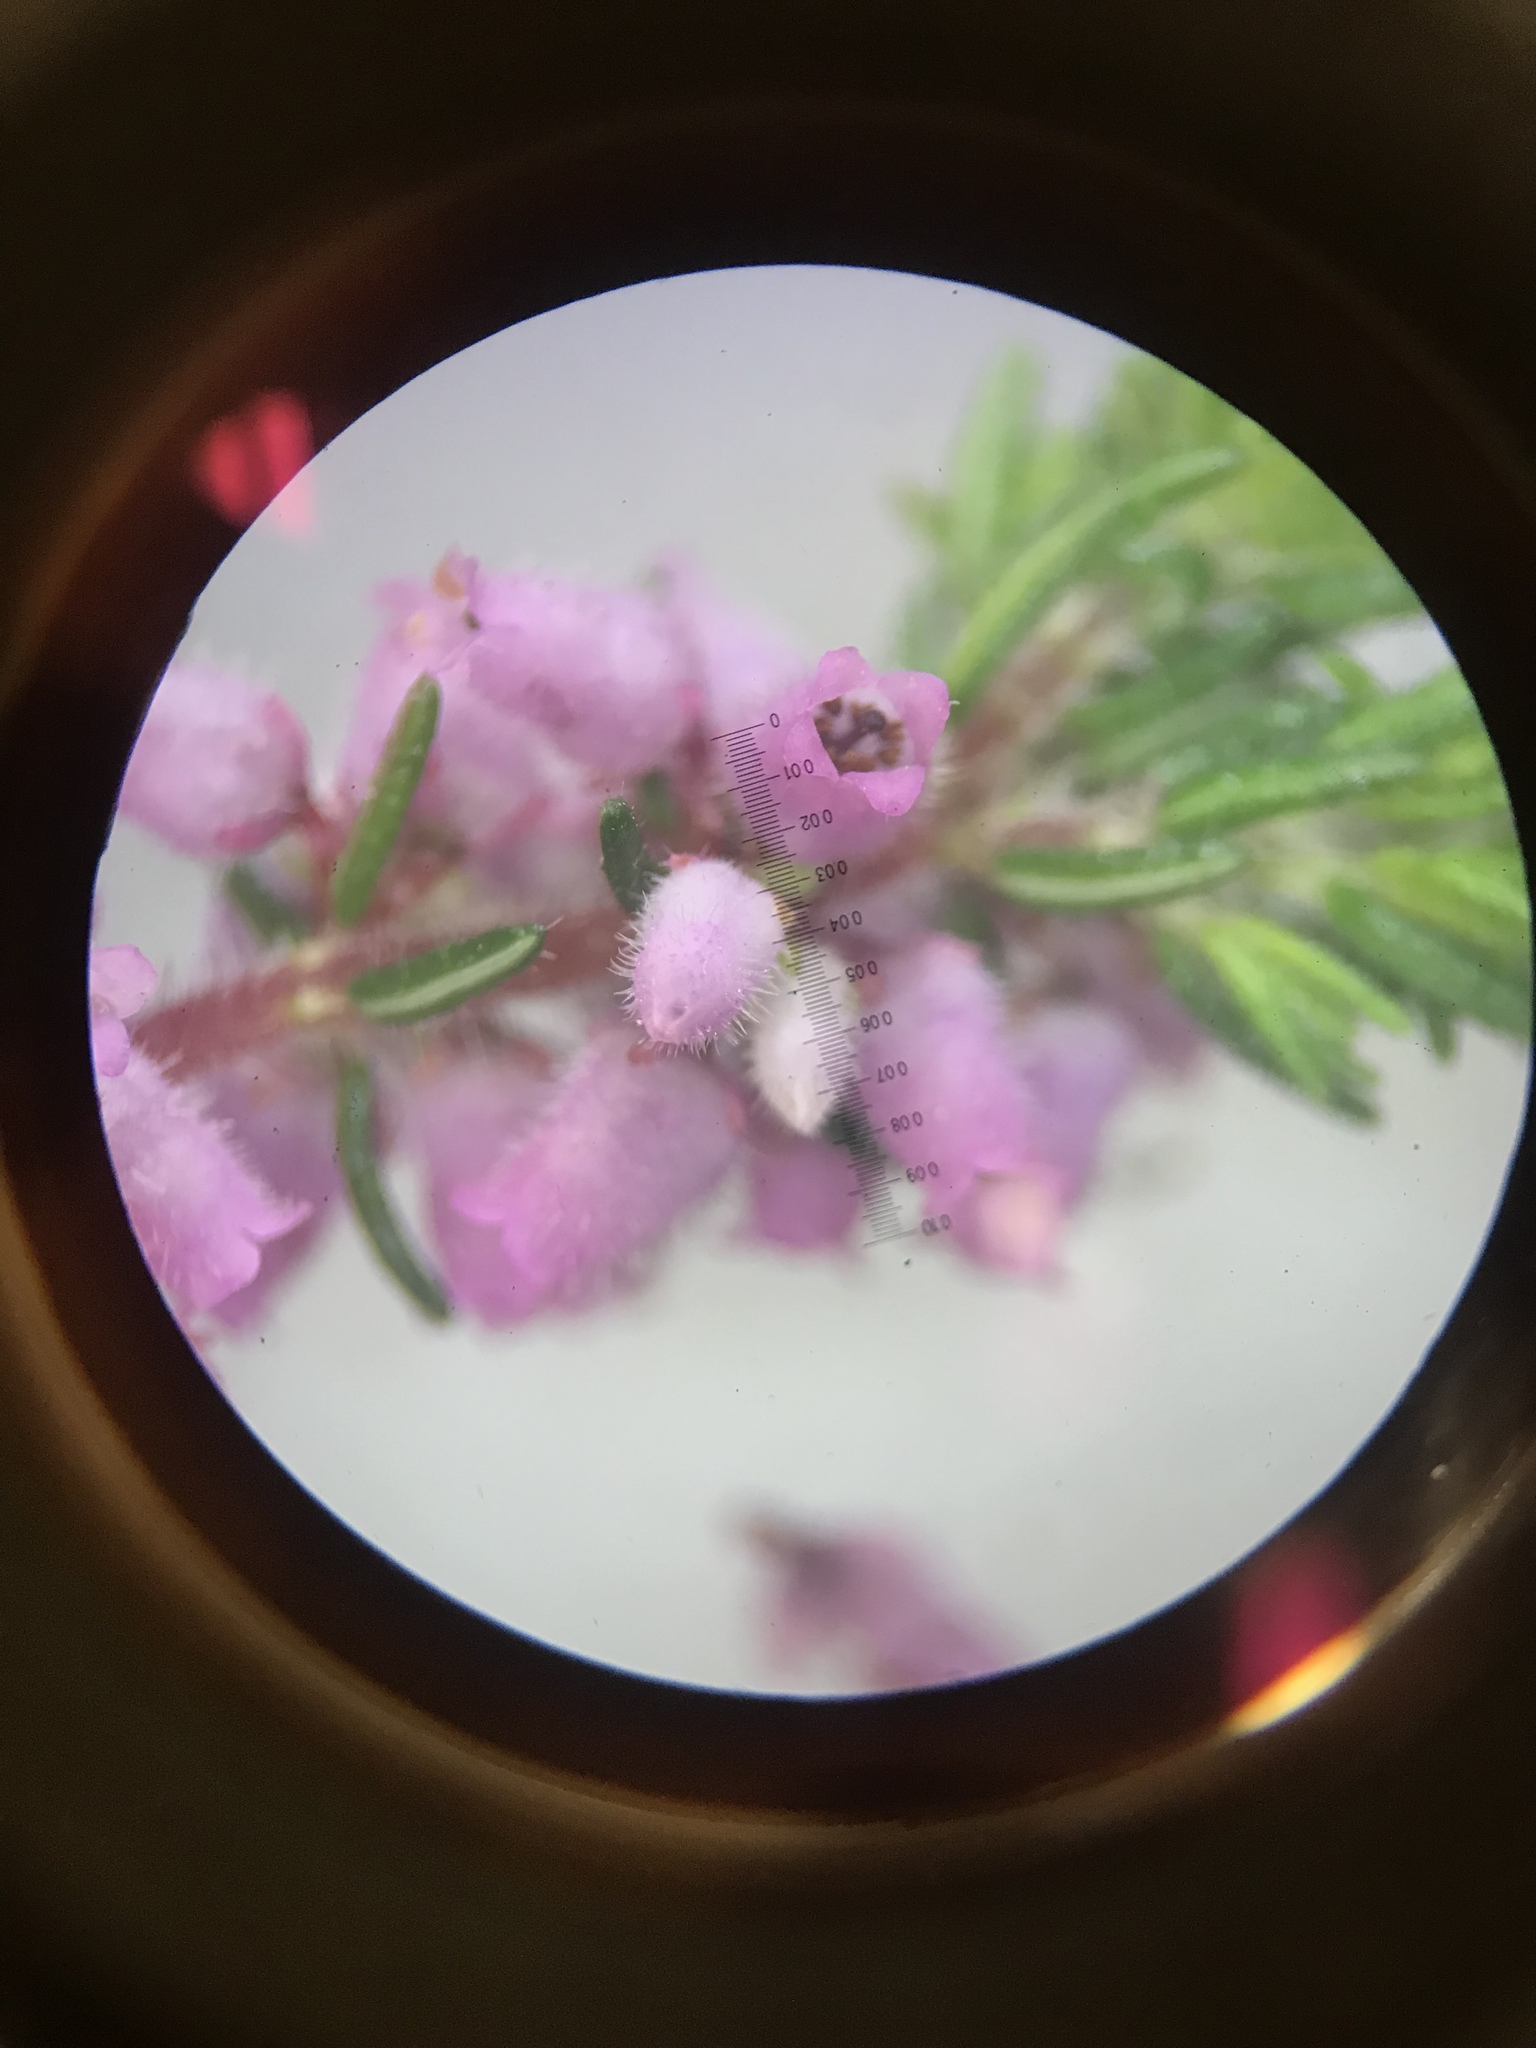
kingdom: Plantae
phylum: Tracheophyta
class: Magnoliopsida
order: Ericales
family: Ericaceae
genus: Erica
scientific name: Erica parviflora
